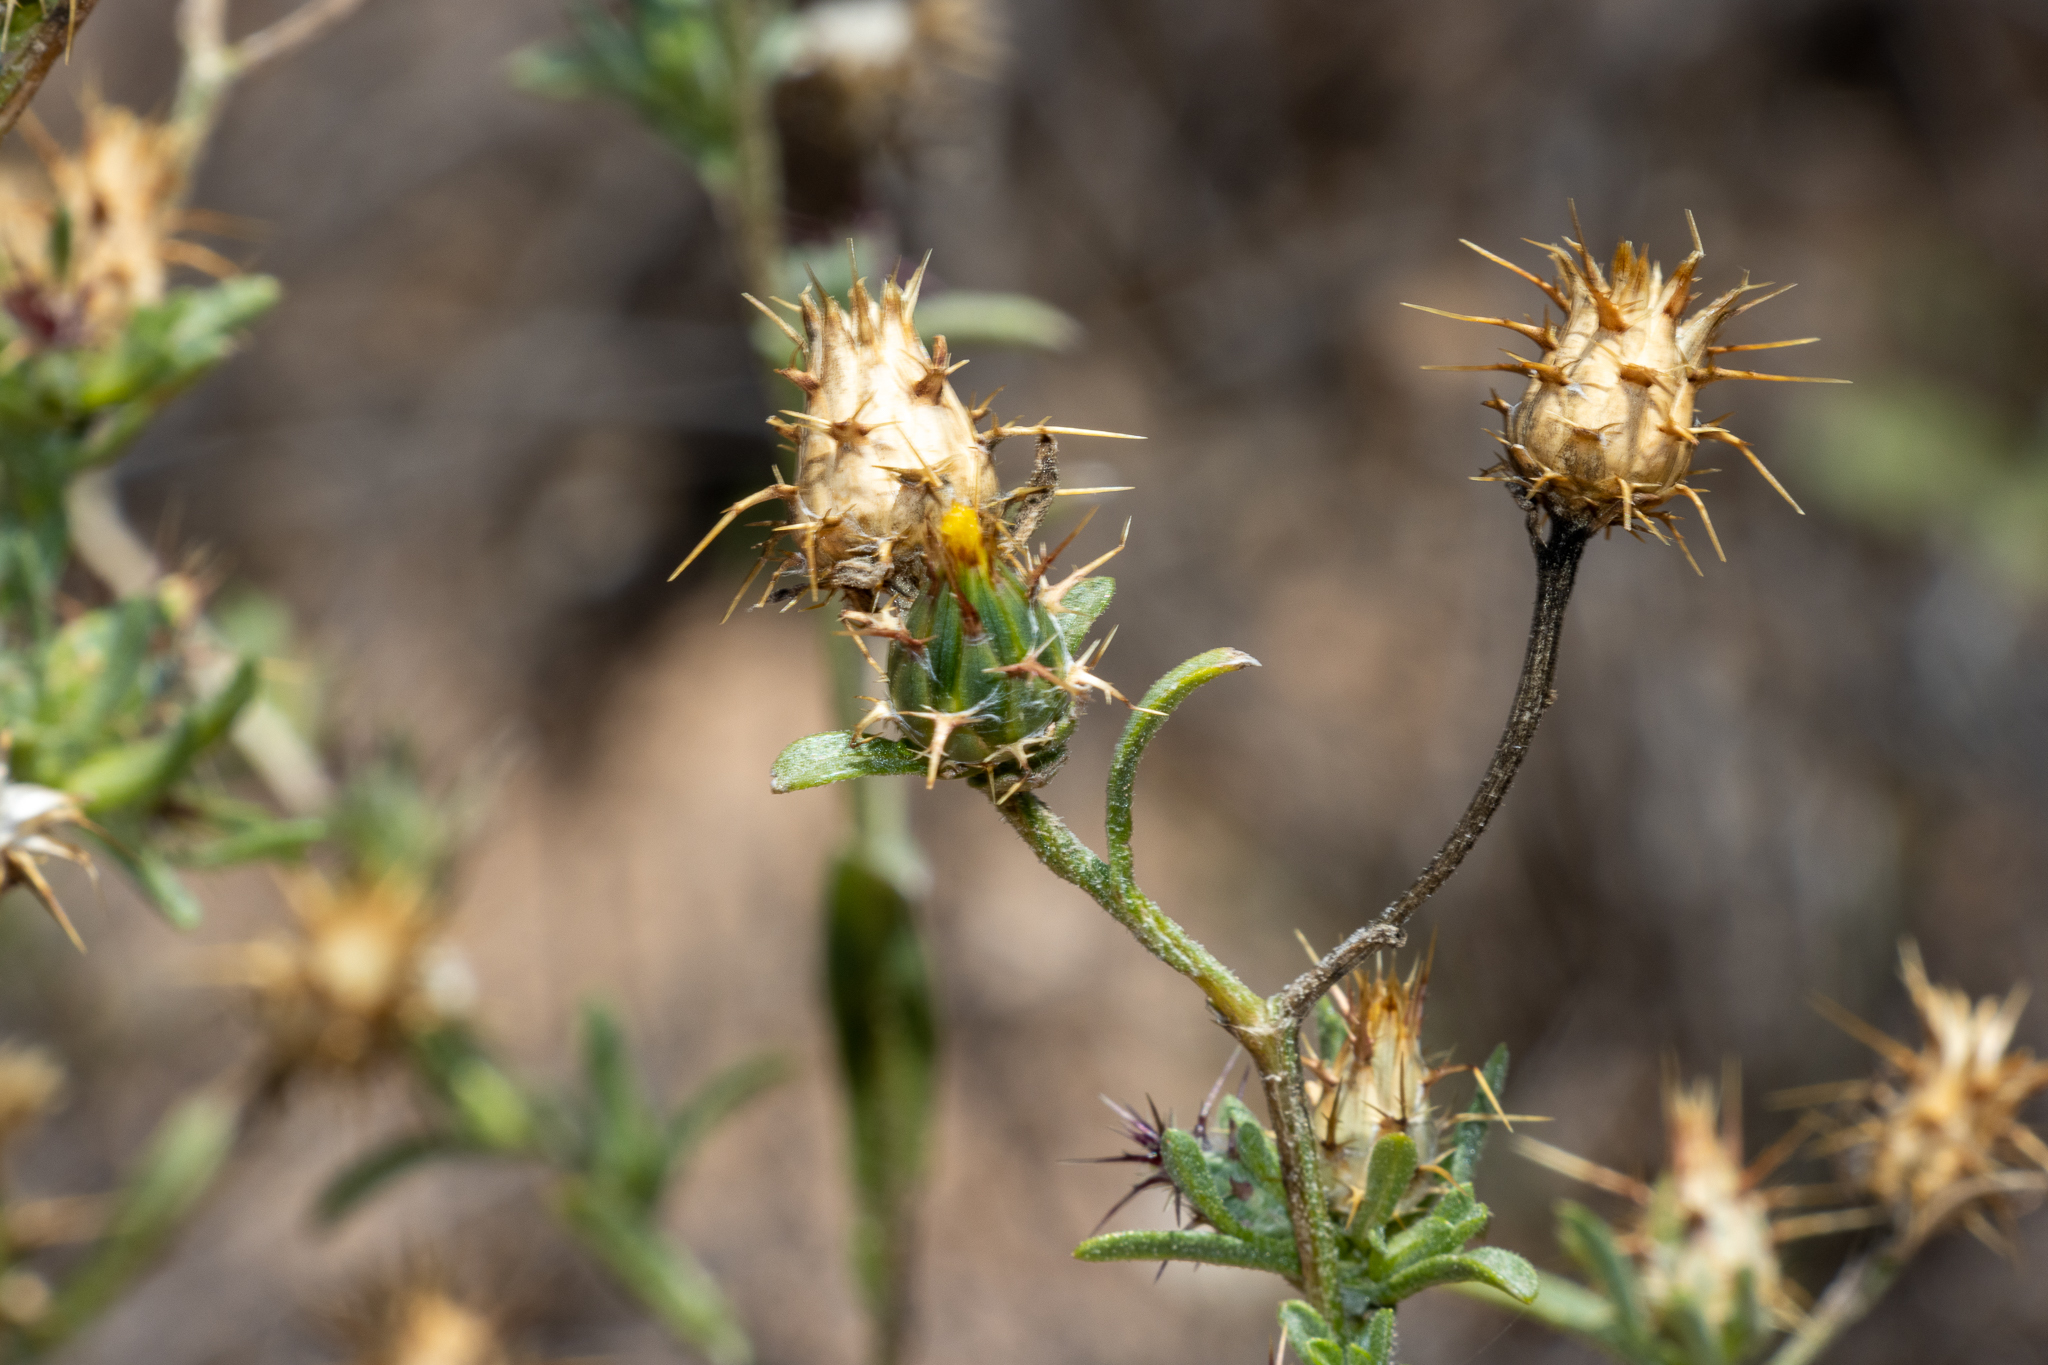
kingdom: Plantae
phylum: Tracheophyta
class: Magnoliopsida
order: Asterales
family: Asteraceae
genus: Centaurea
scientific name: Centaurea melitensis
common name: Maltese star-thistle
